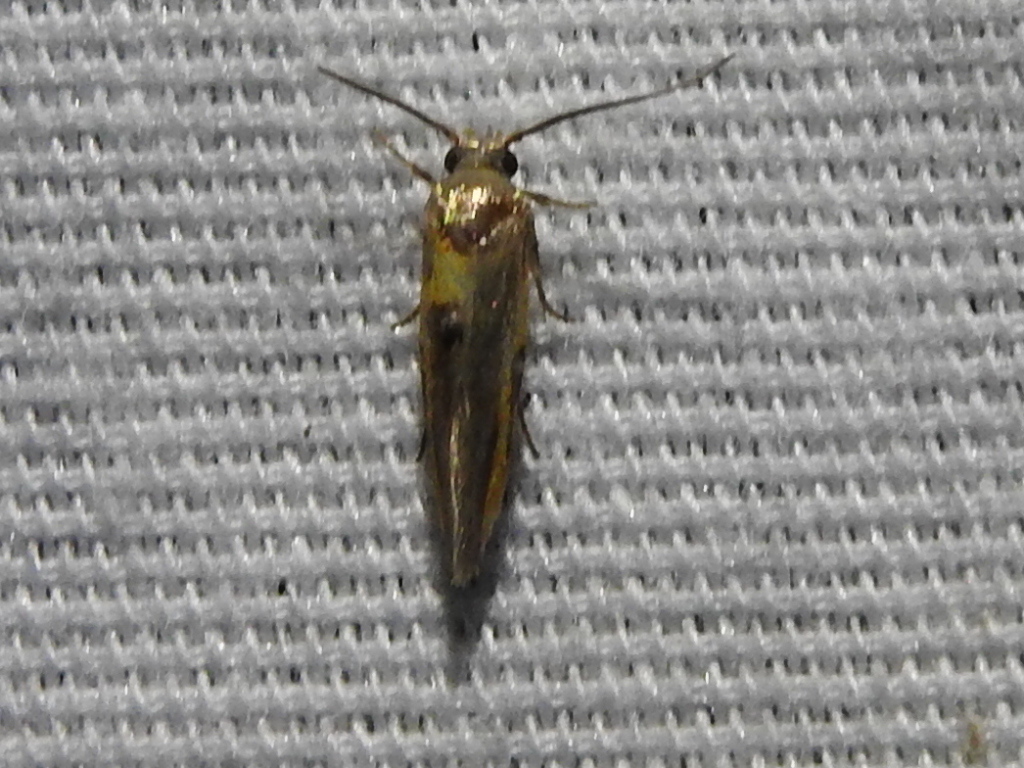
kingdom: Animalia
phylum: Arthropoda
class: Insecta
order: Lepidoptera
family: Cosmopterigidae
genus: Euclemensia
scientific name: Euclemensia bassettella
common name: Kermes scale moth
